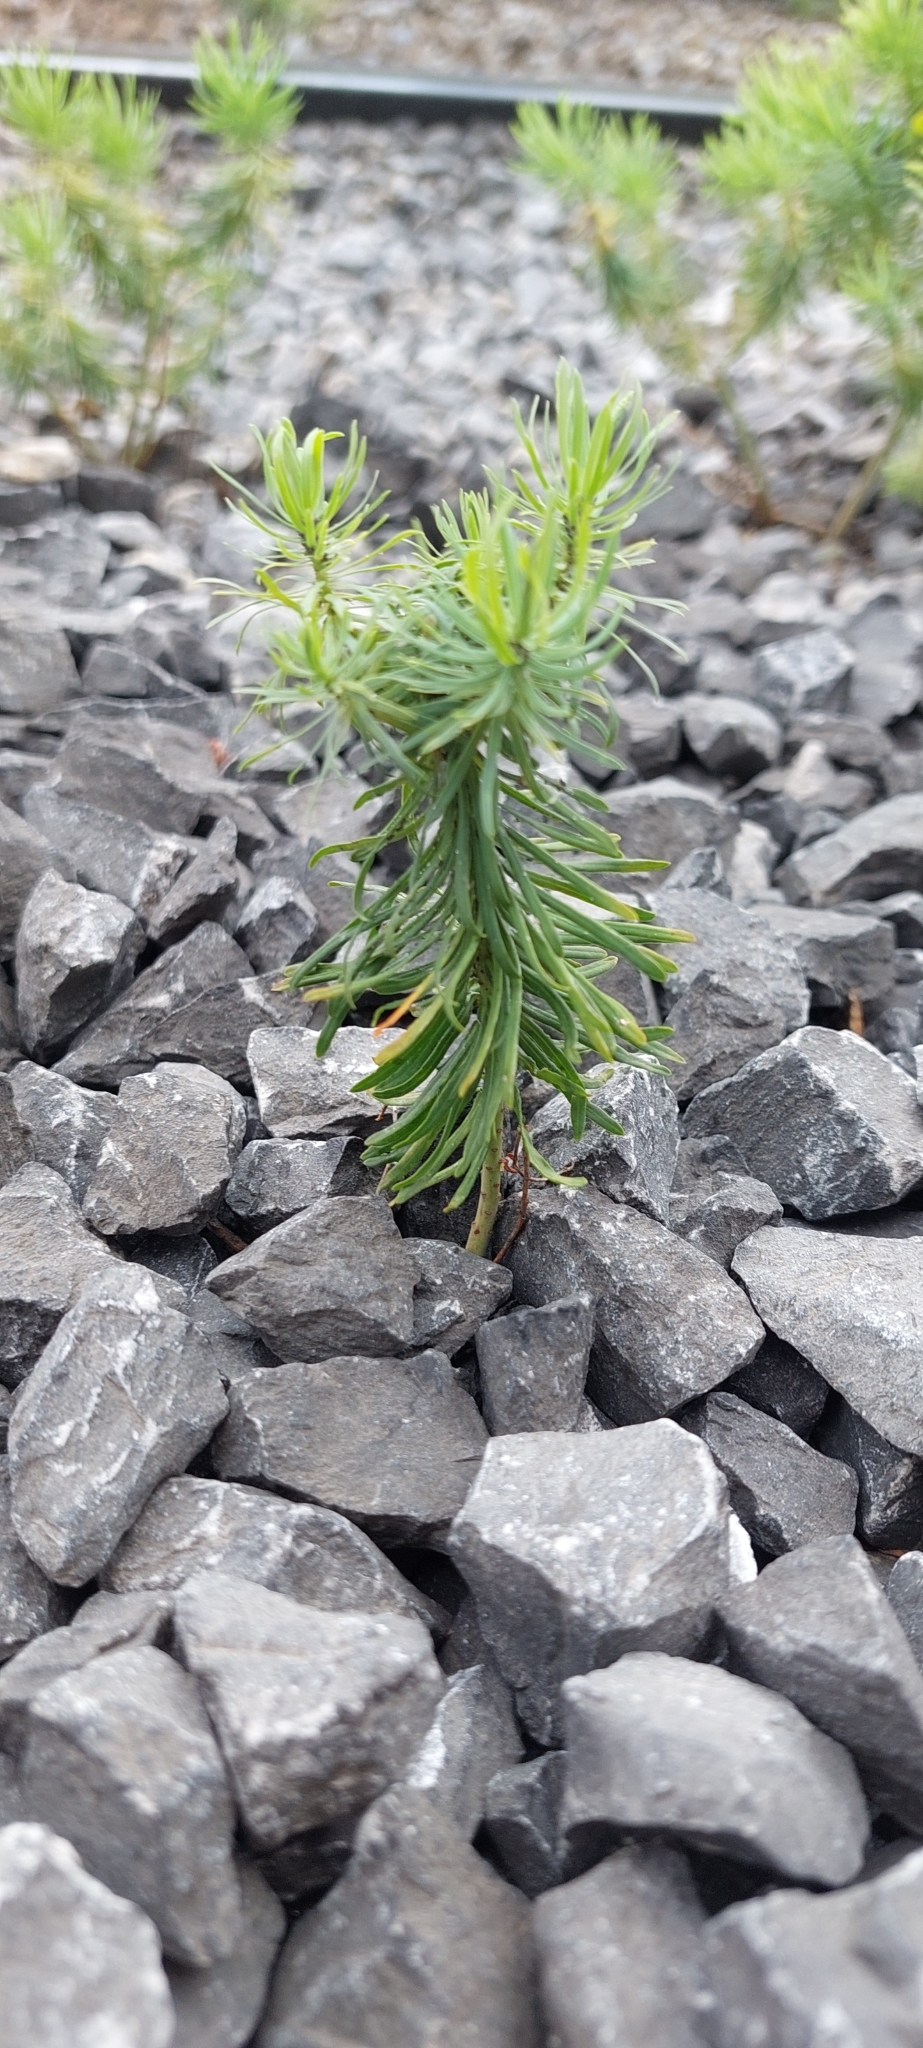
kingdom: Plantae
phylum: Tracheophyta
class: Pinopsida
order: Pinales
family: Pinaceae
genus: Abies
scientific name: Abies alba
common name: Silver fir
